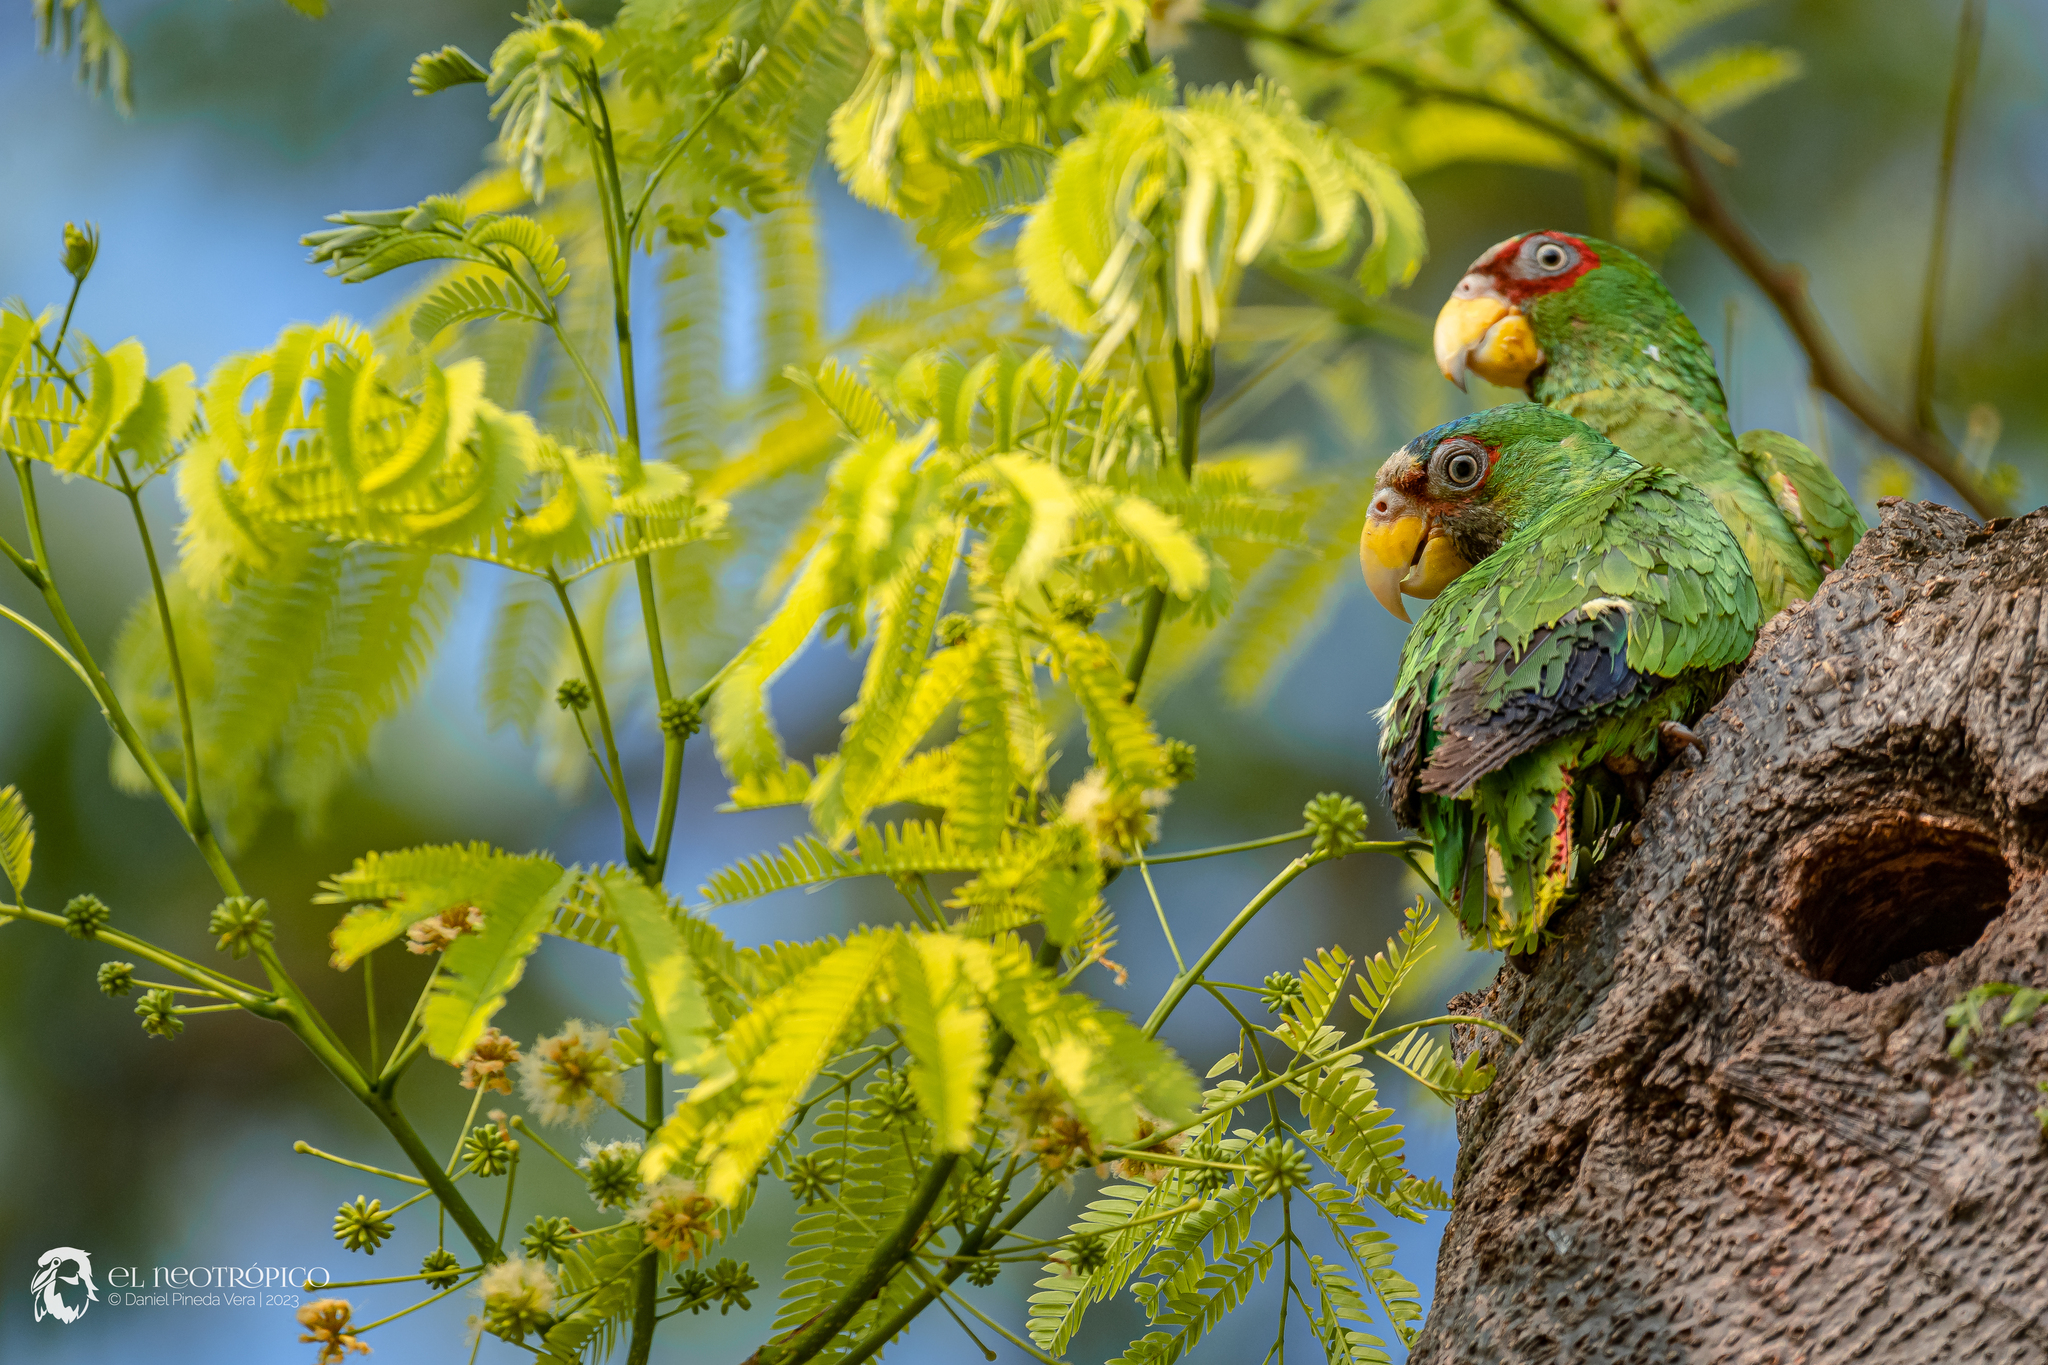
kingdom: Animalia
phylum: Chordata
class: Aves
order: Psittaciformes
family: Psittacidae
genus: Amazona
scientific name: Amazona albifrons
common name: White-fronted amazon
